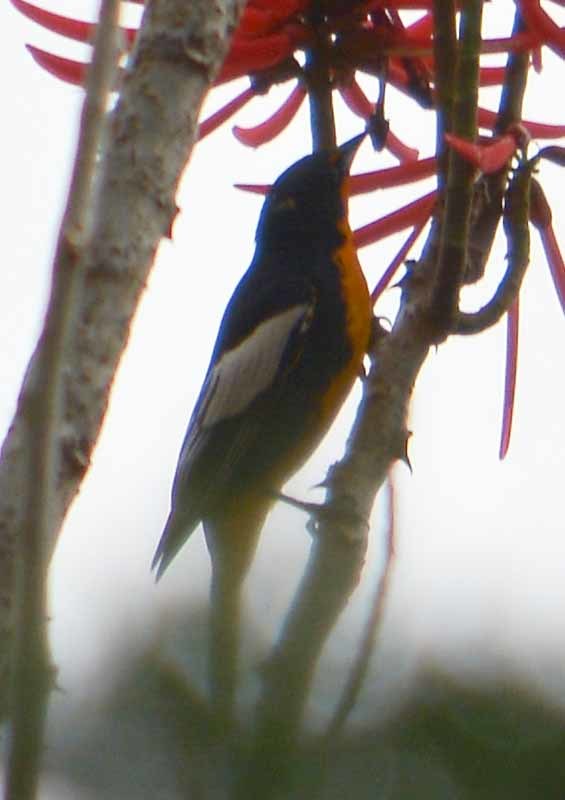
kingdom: Animalia
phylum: Chordata
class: Aves
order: Passeriformes
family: Icteridae
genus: Icterus
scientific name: Icterus abeillei
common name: Black-backed oriole
